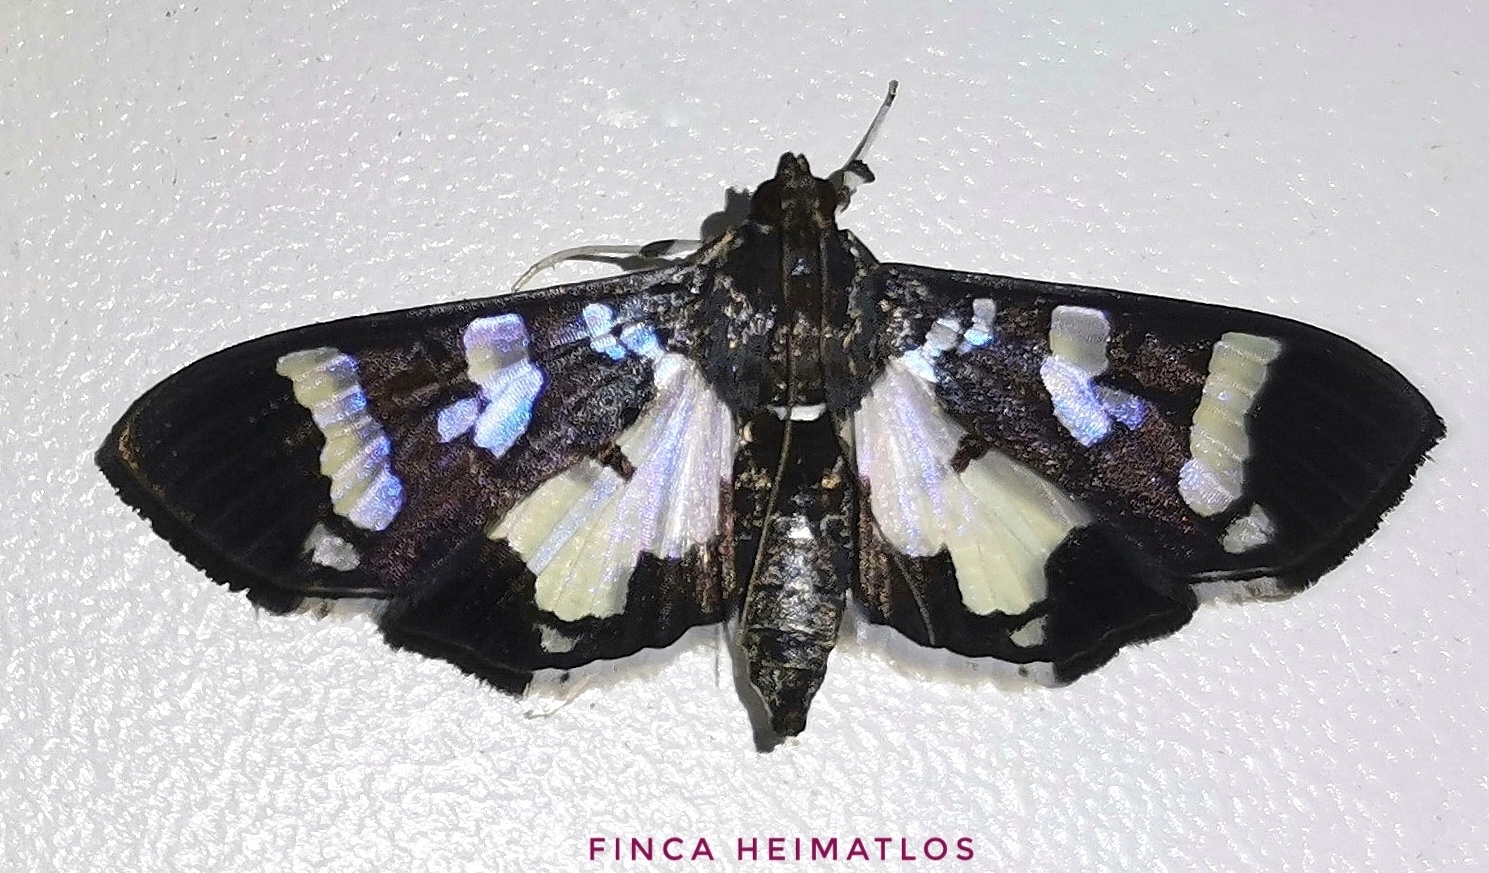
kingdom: Animalia
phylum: Arthropoda
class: Insecta
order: Lepidoptera
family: Crambidae
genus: Desmia
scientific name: Desmia bajulalis
